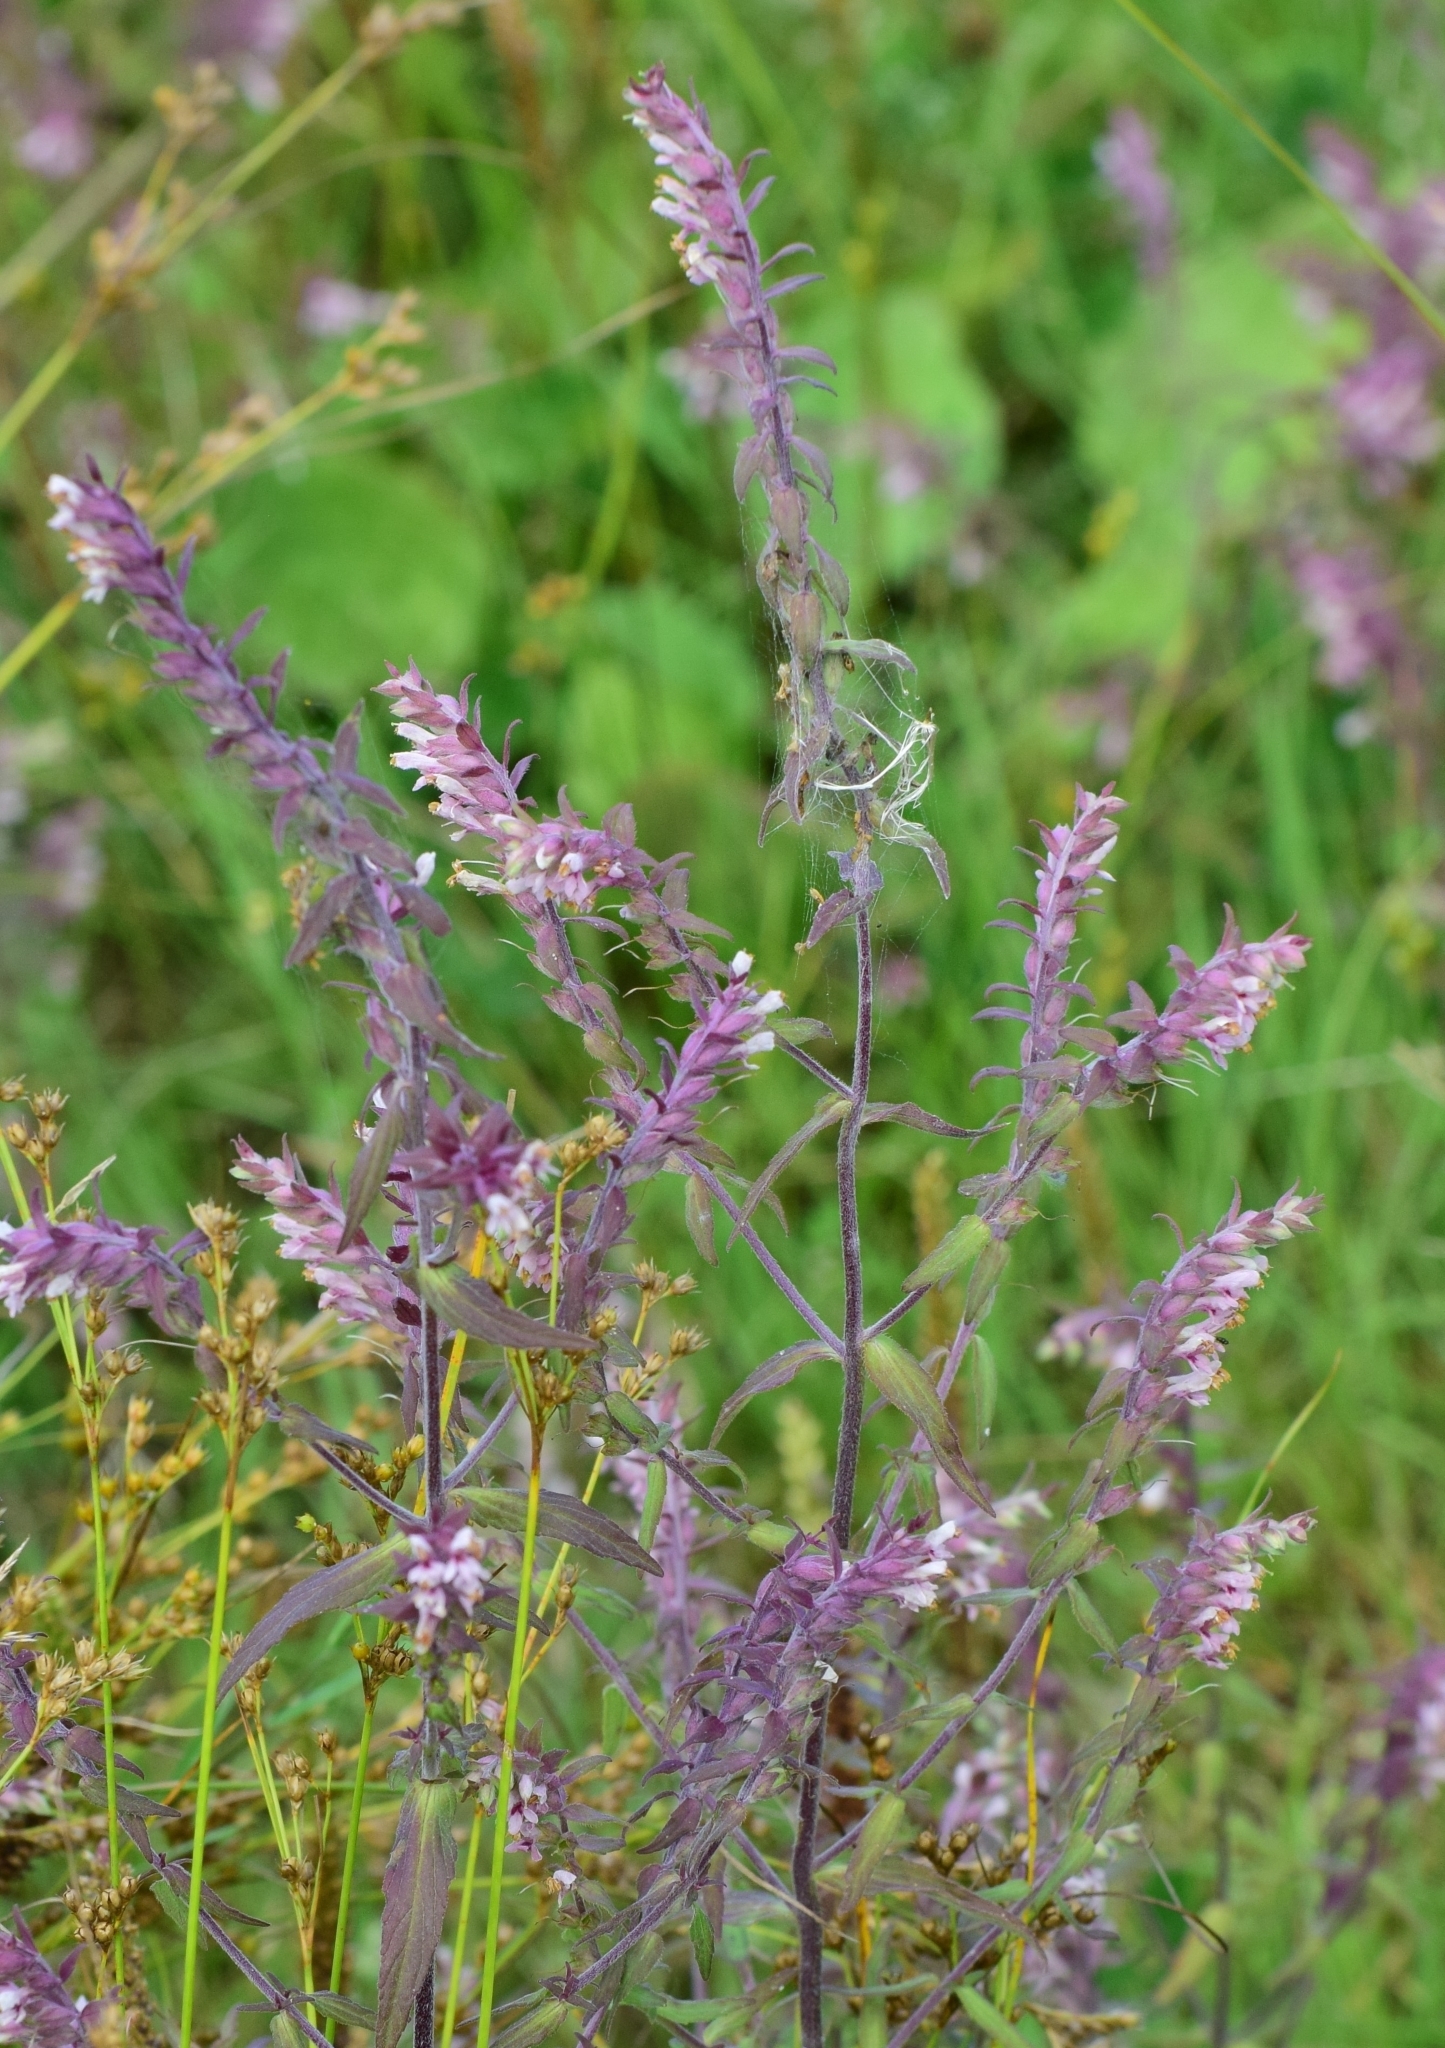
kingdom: Plantae
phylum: Tracheophyta
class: Magnoliopsida
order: Lamiales
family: Orobanchaceae
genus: Odontites
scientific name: Odontites vulgaris
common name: Broomrape
